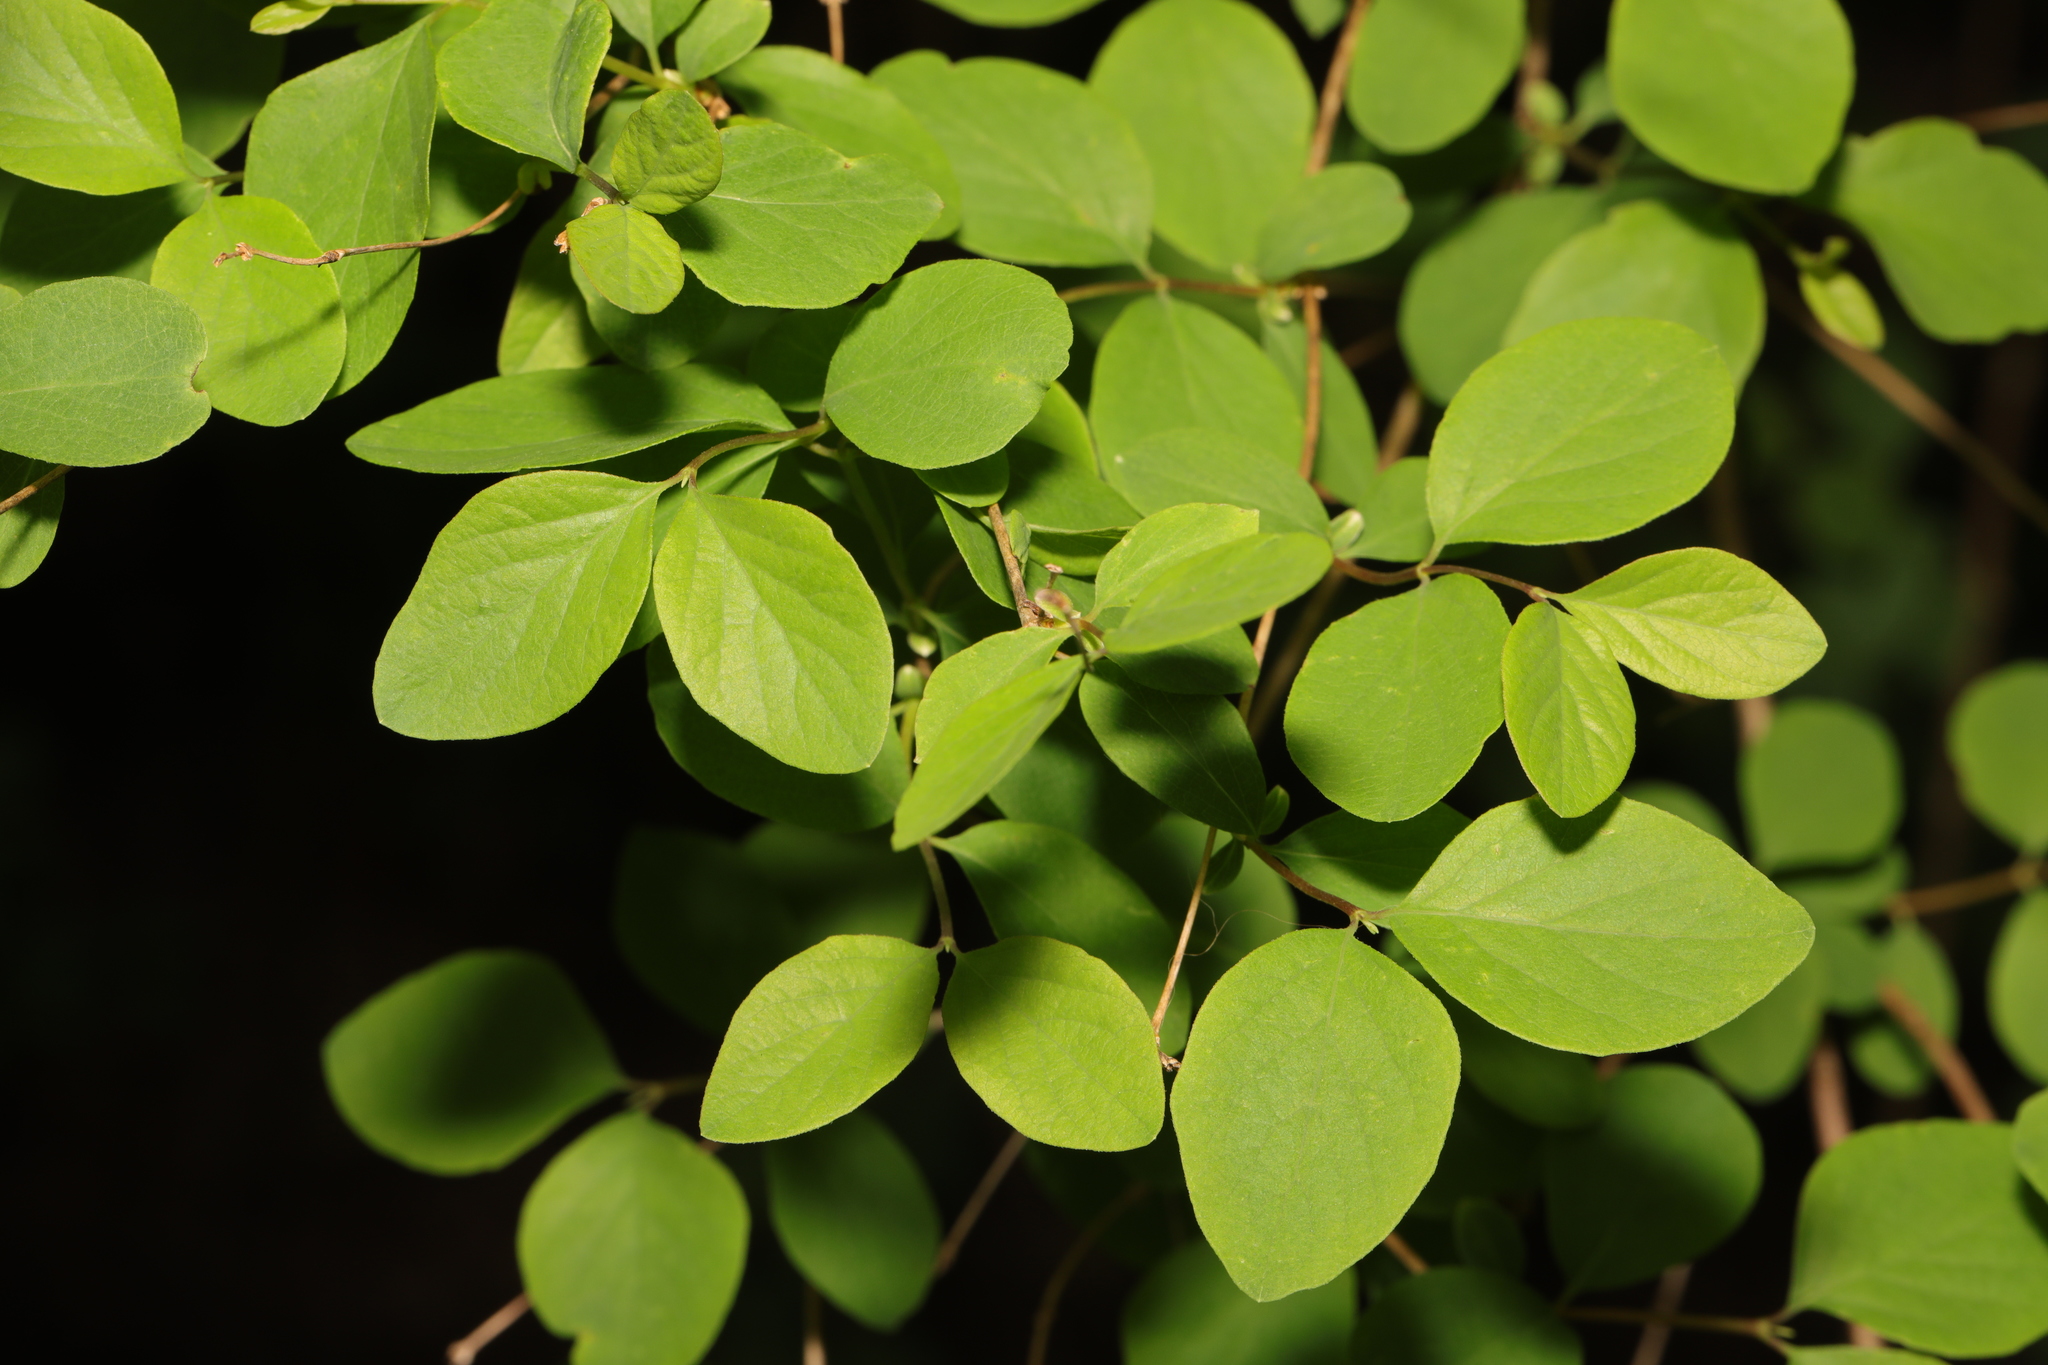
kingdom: Plantae
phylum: Tracheophyta
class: Magnoliopsida
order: Dipsacales
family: Caprifoliaceae
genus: Symphoricarpos
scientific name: Symphoricarpos albus
